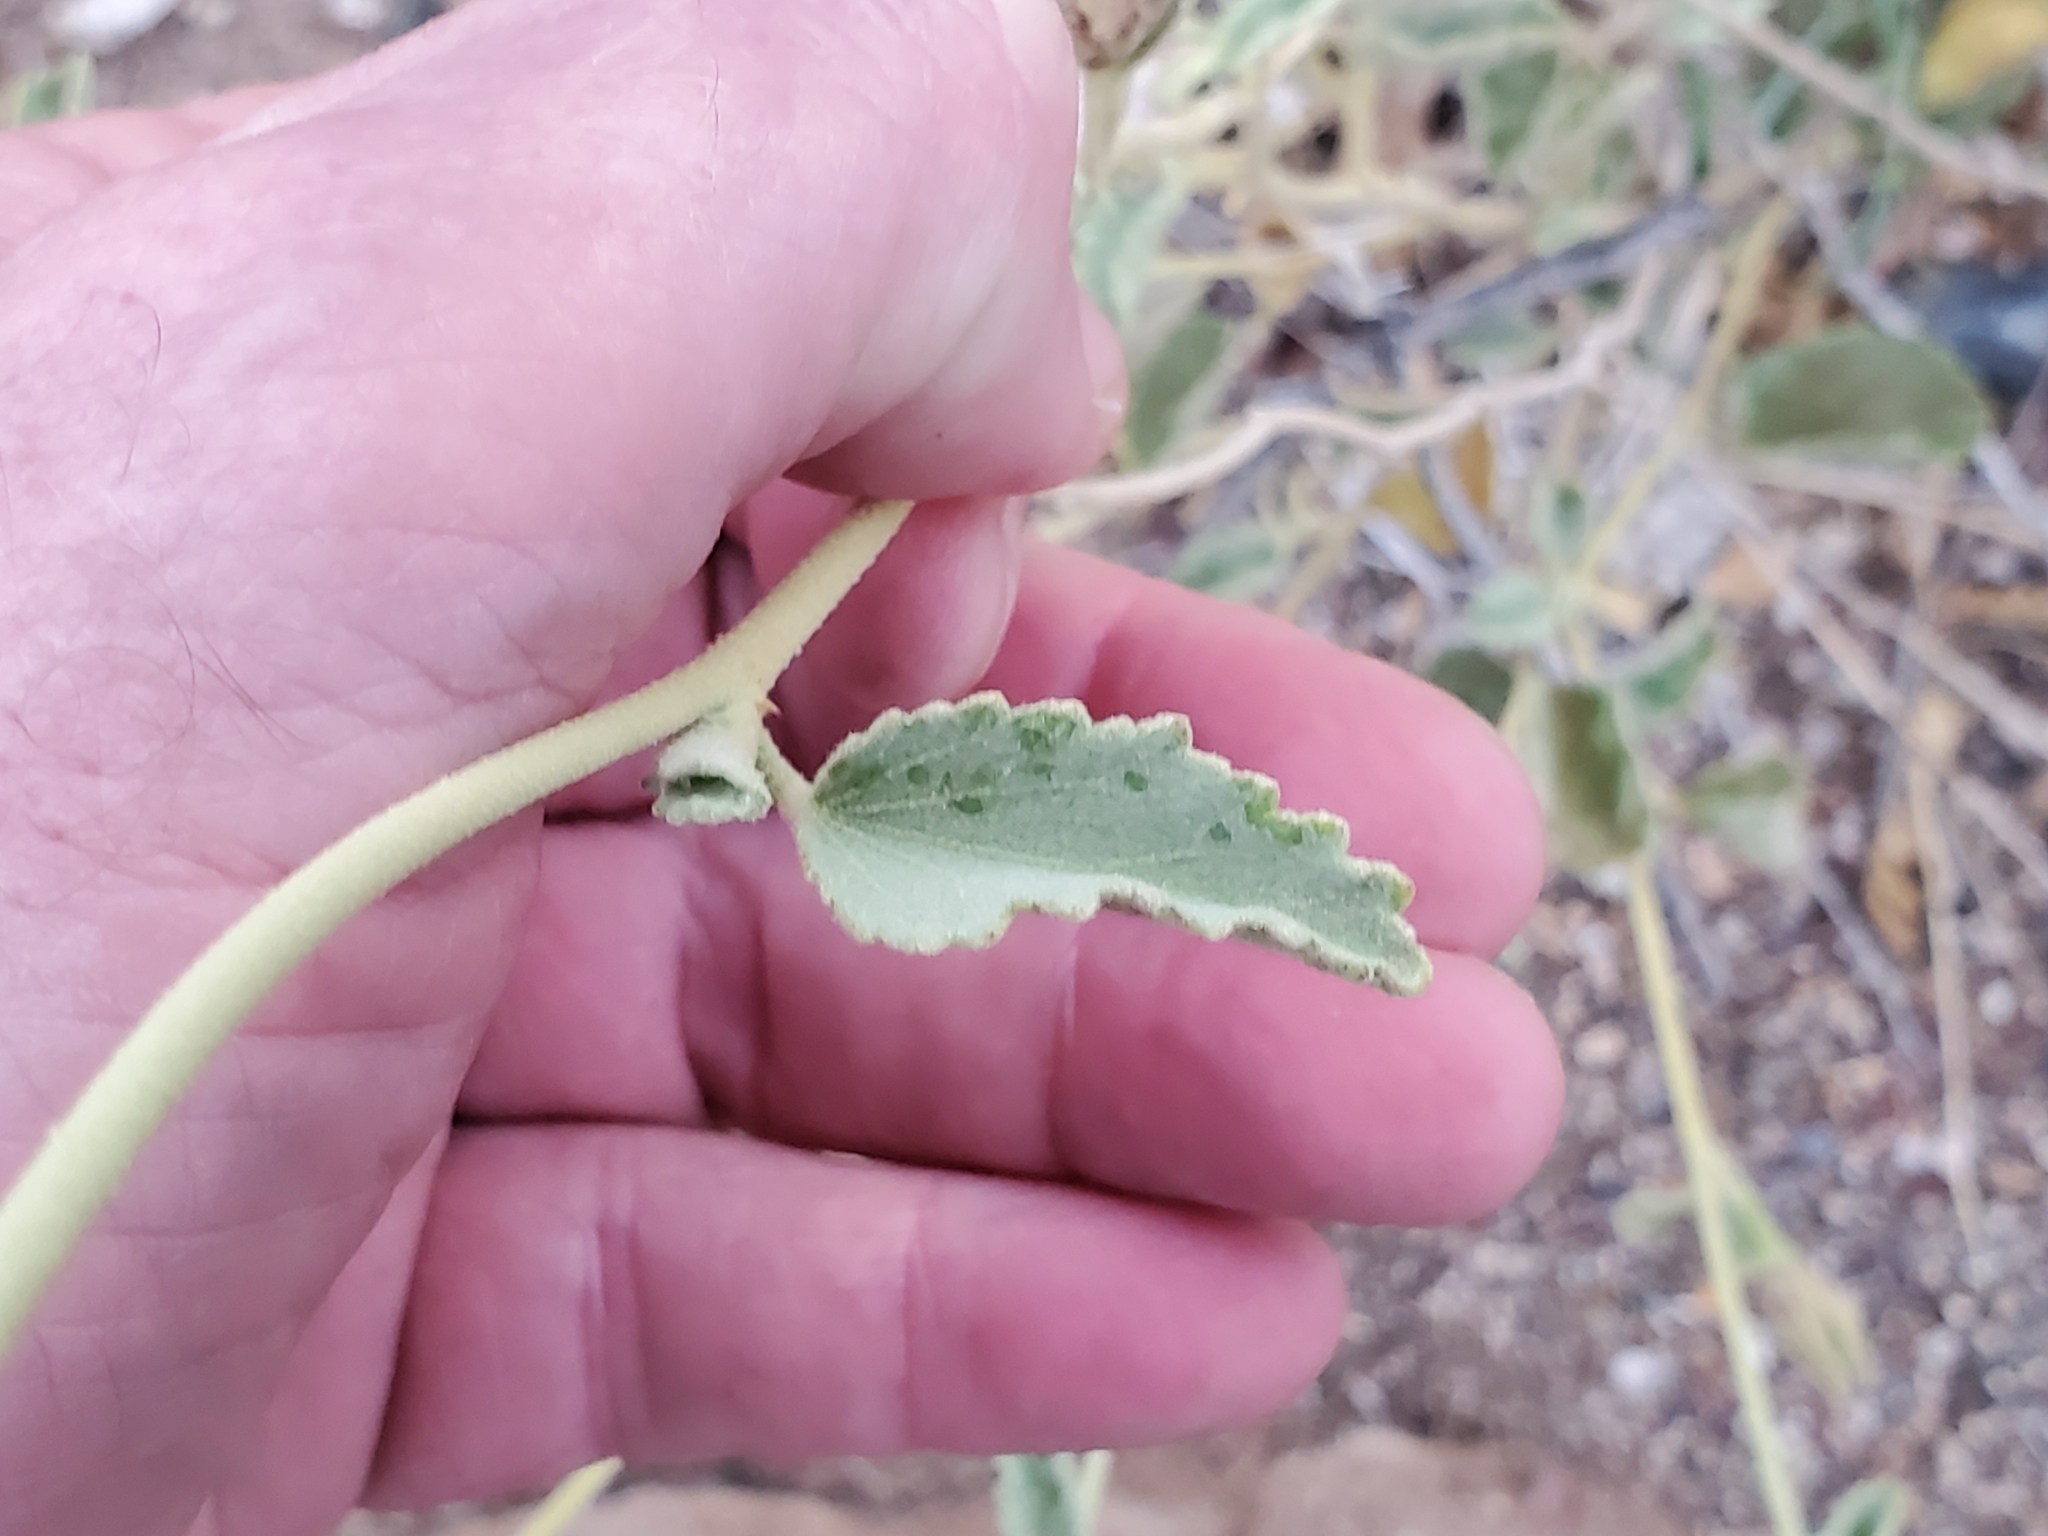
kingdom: Plantae
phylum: Tracheophyta
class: Magnoliopsida
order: Malvales
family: Malvaceae
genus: Hibiscus
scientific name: Hibiscus denudatus
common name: Paleface
